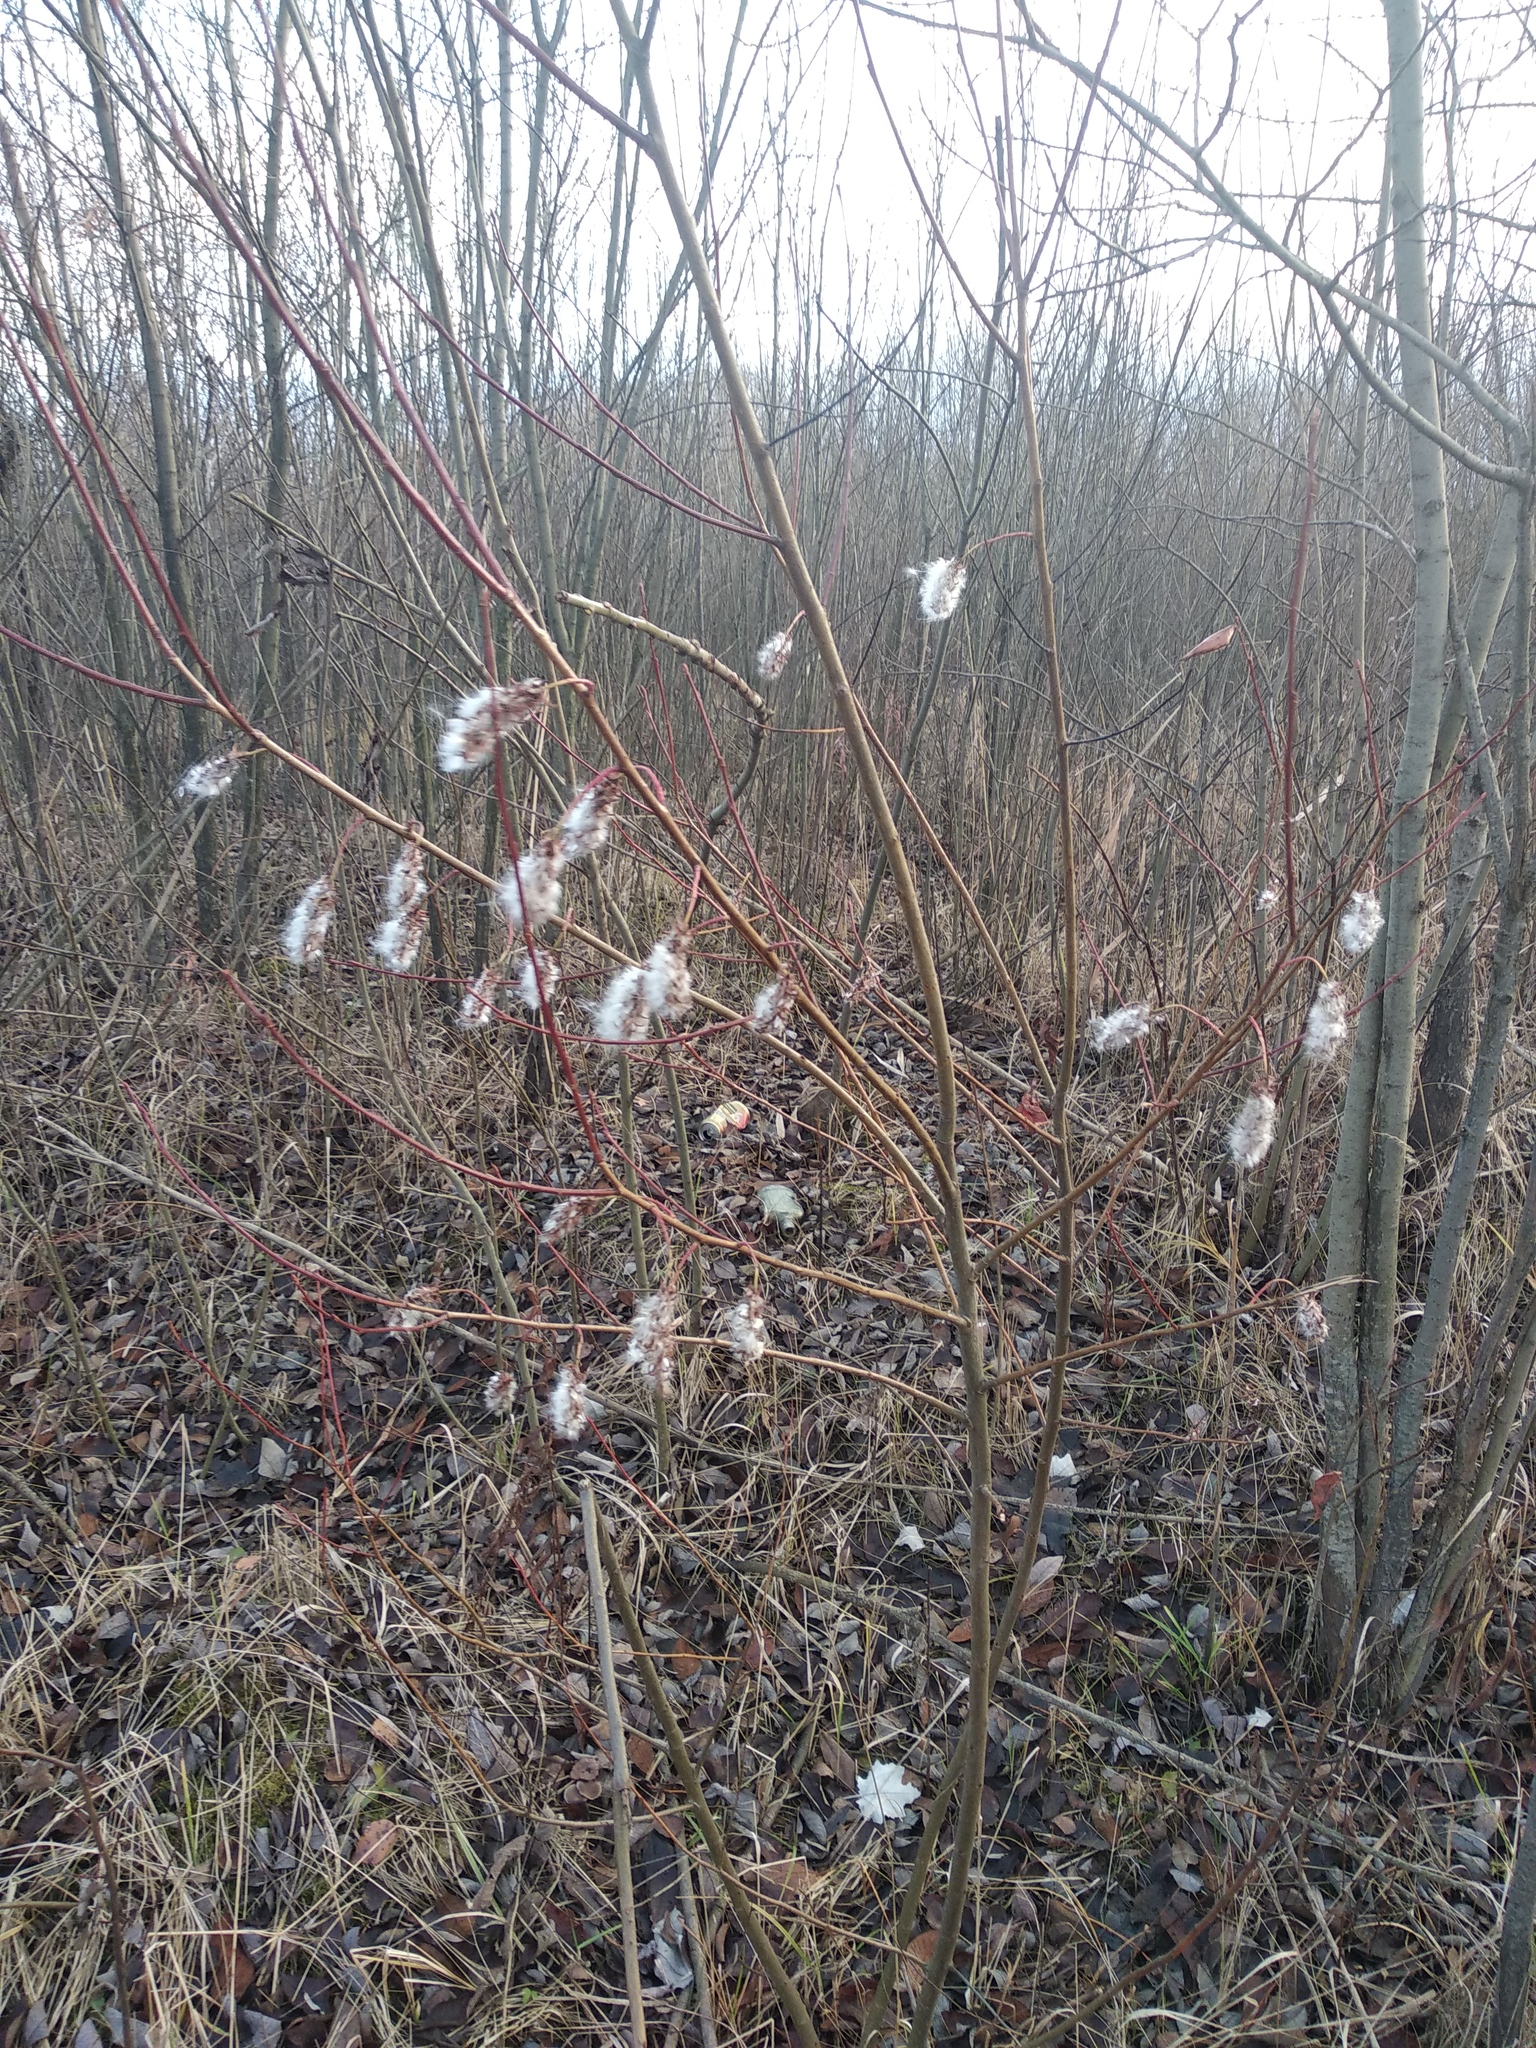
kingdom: Plantae
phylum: Tracheophyta
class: Magnoliopsida
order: Malpighiales
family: Salicaceae
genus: Salix
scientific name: Salix pentandra
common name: Bay willow
